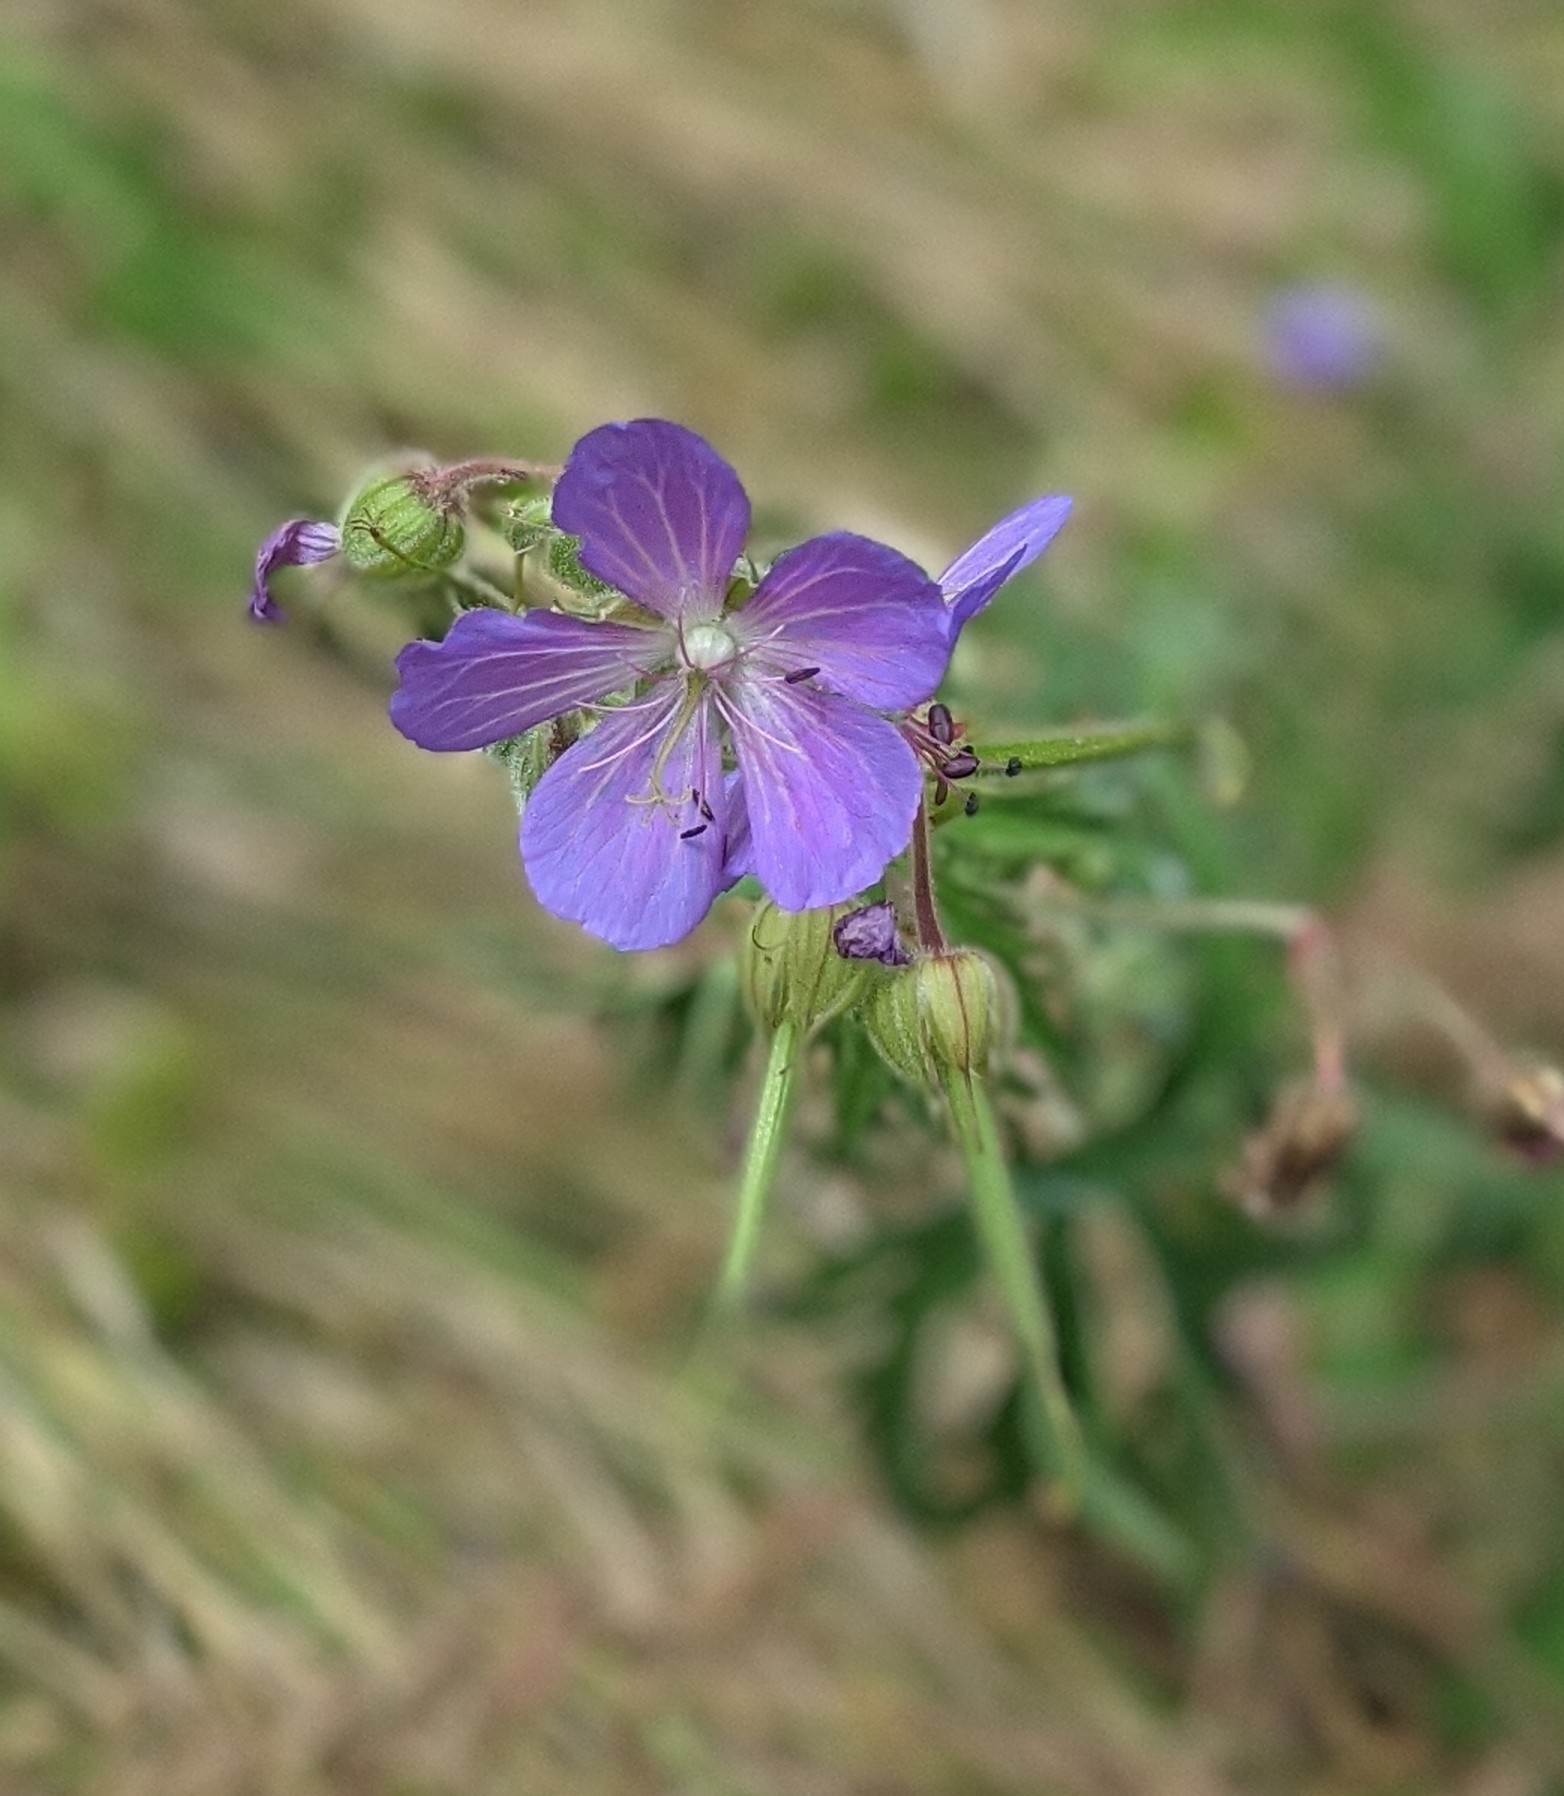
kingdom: Plantae
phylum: Tracheophyta
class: Magnoliopsida
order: Geraniales
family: Geraniaceae
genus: Geranium
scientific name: Geranium pratense
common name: Meadow crane's-bill
